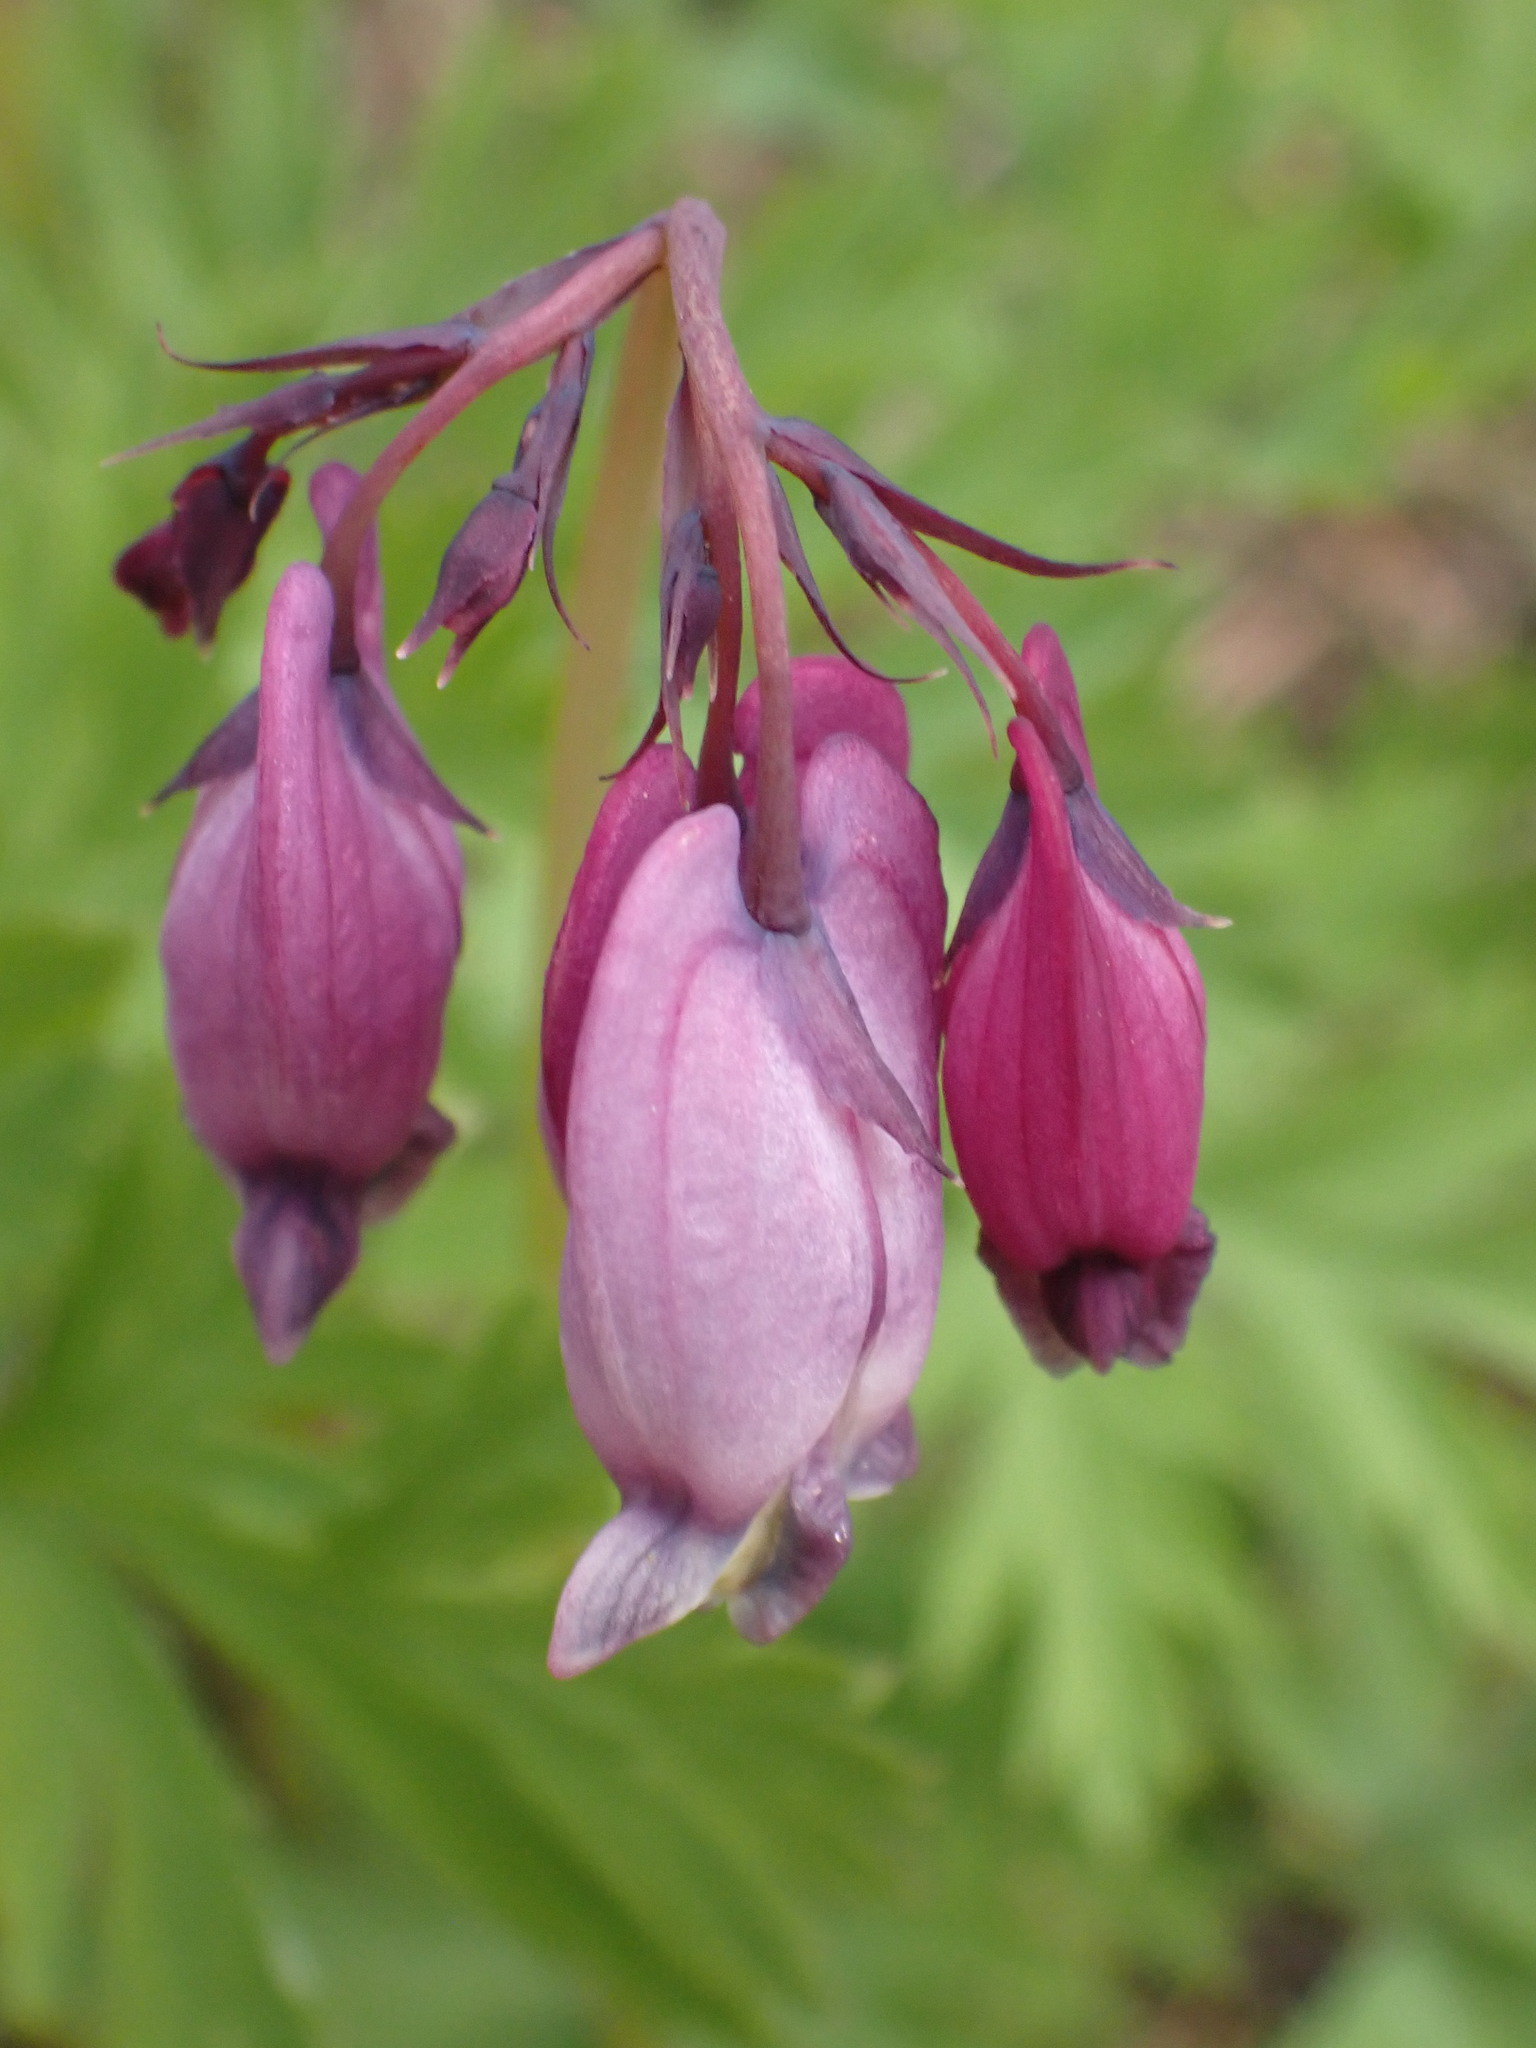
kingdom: Plantae
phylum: Tracheophyta
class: Magnoliopsida
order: Ranunculales
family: Papaveraceae
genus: Dicentra
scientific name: Dicentra formosa
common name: Bleeding-heart
